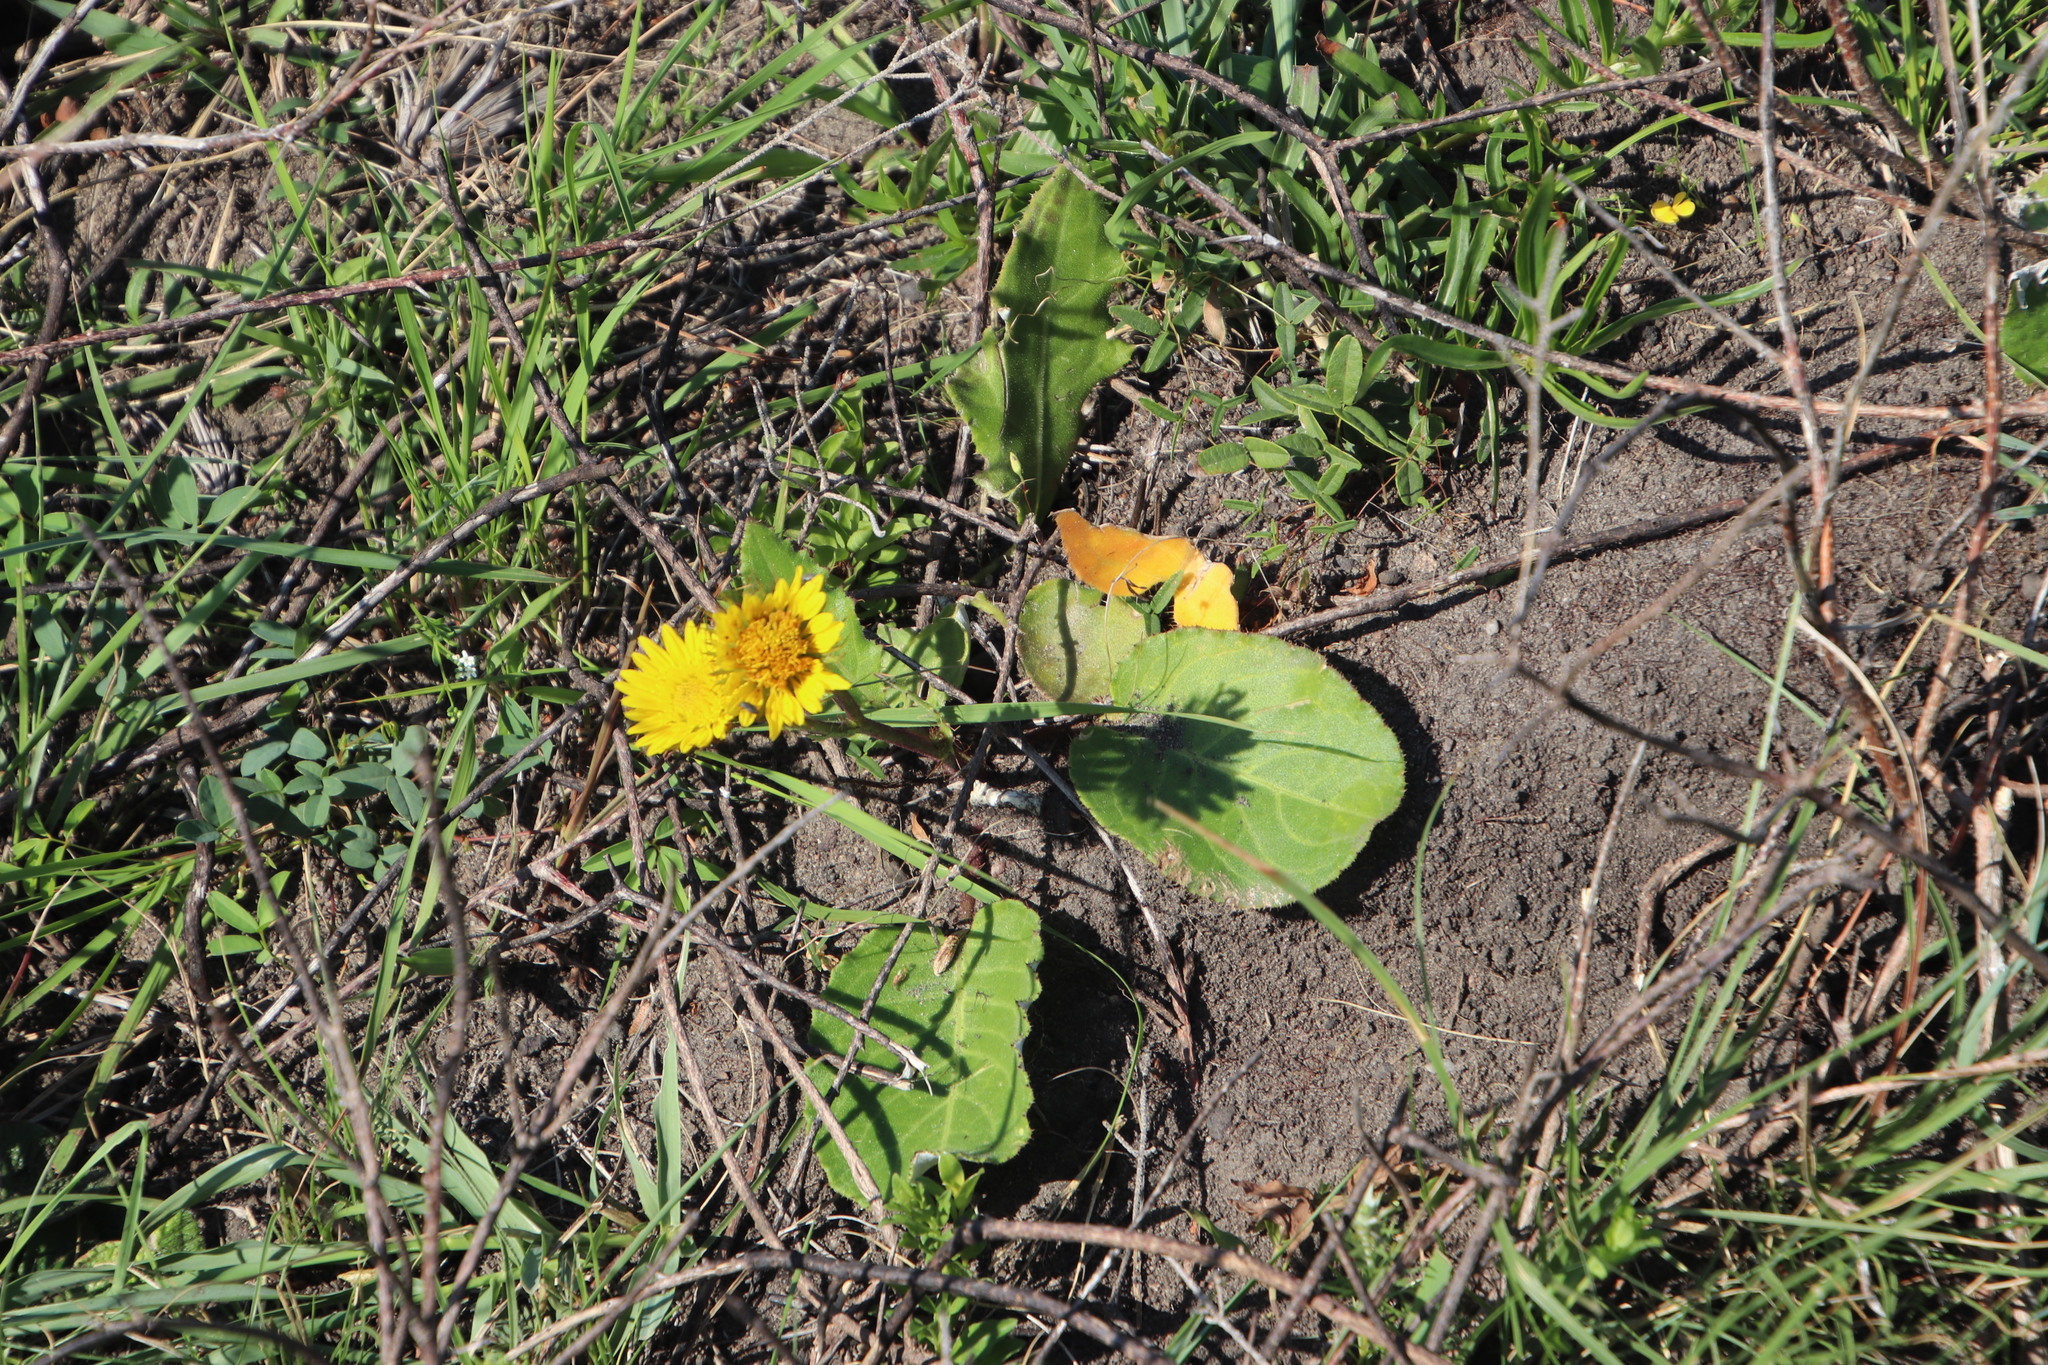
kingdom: Plantae
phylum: Tracheophyta
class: Magnoliopsida
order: Asterales
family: Asteraceae
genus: Berkheya
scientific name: Berkheya speciosa
